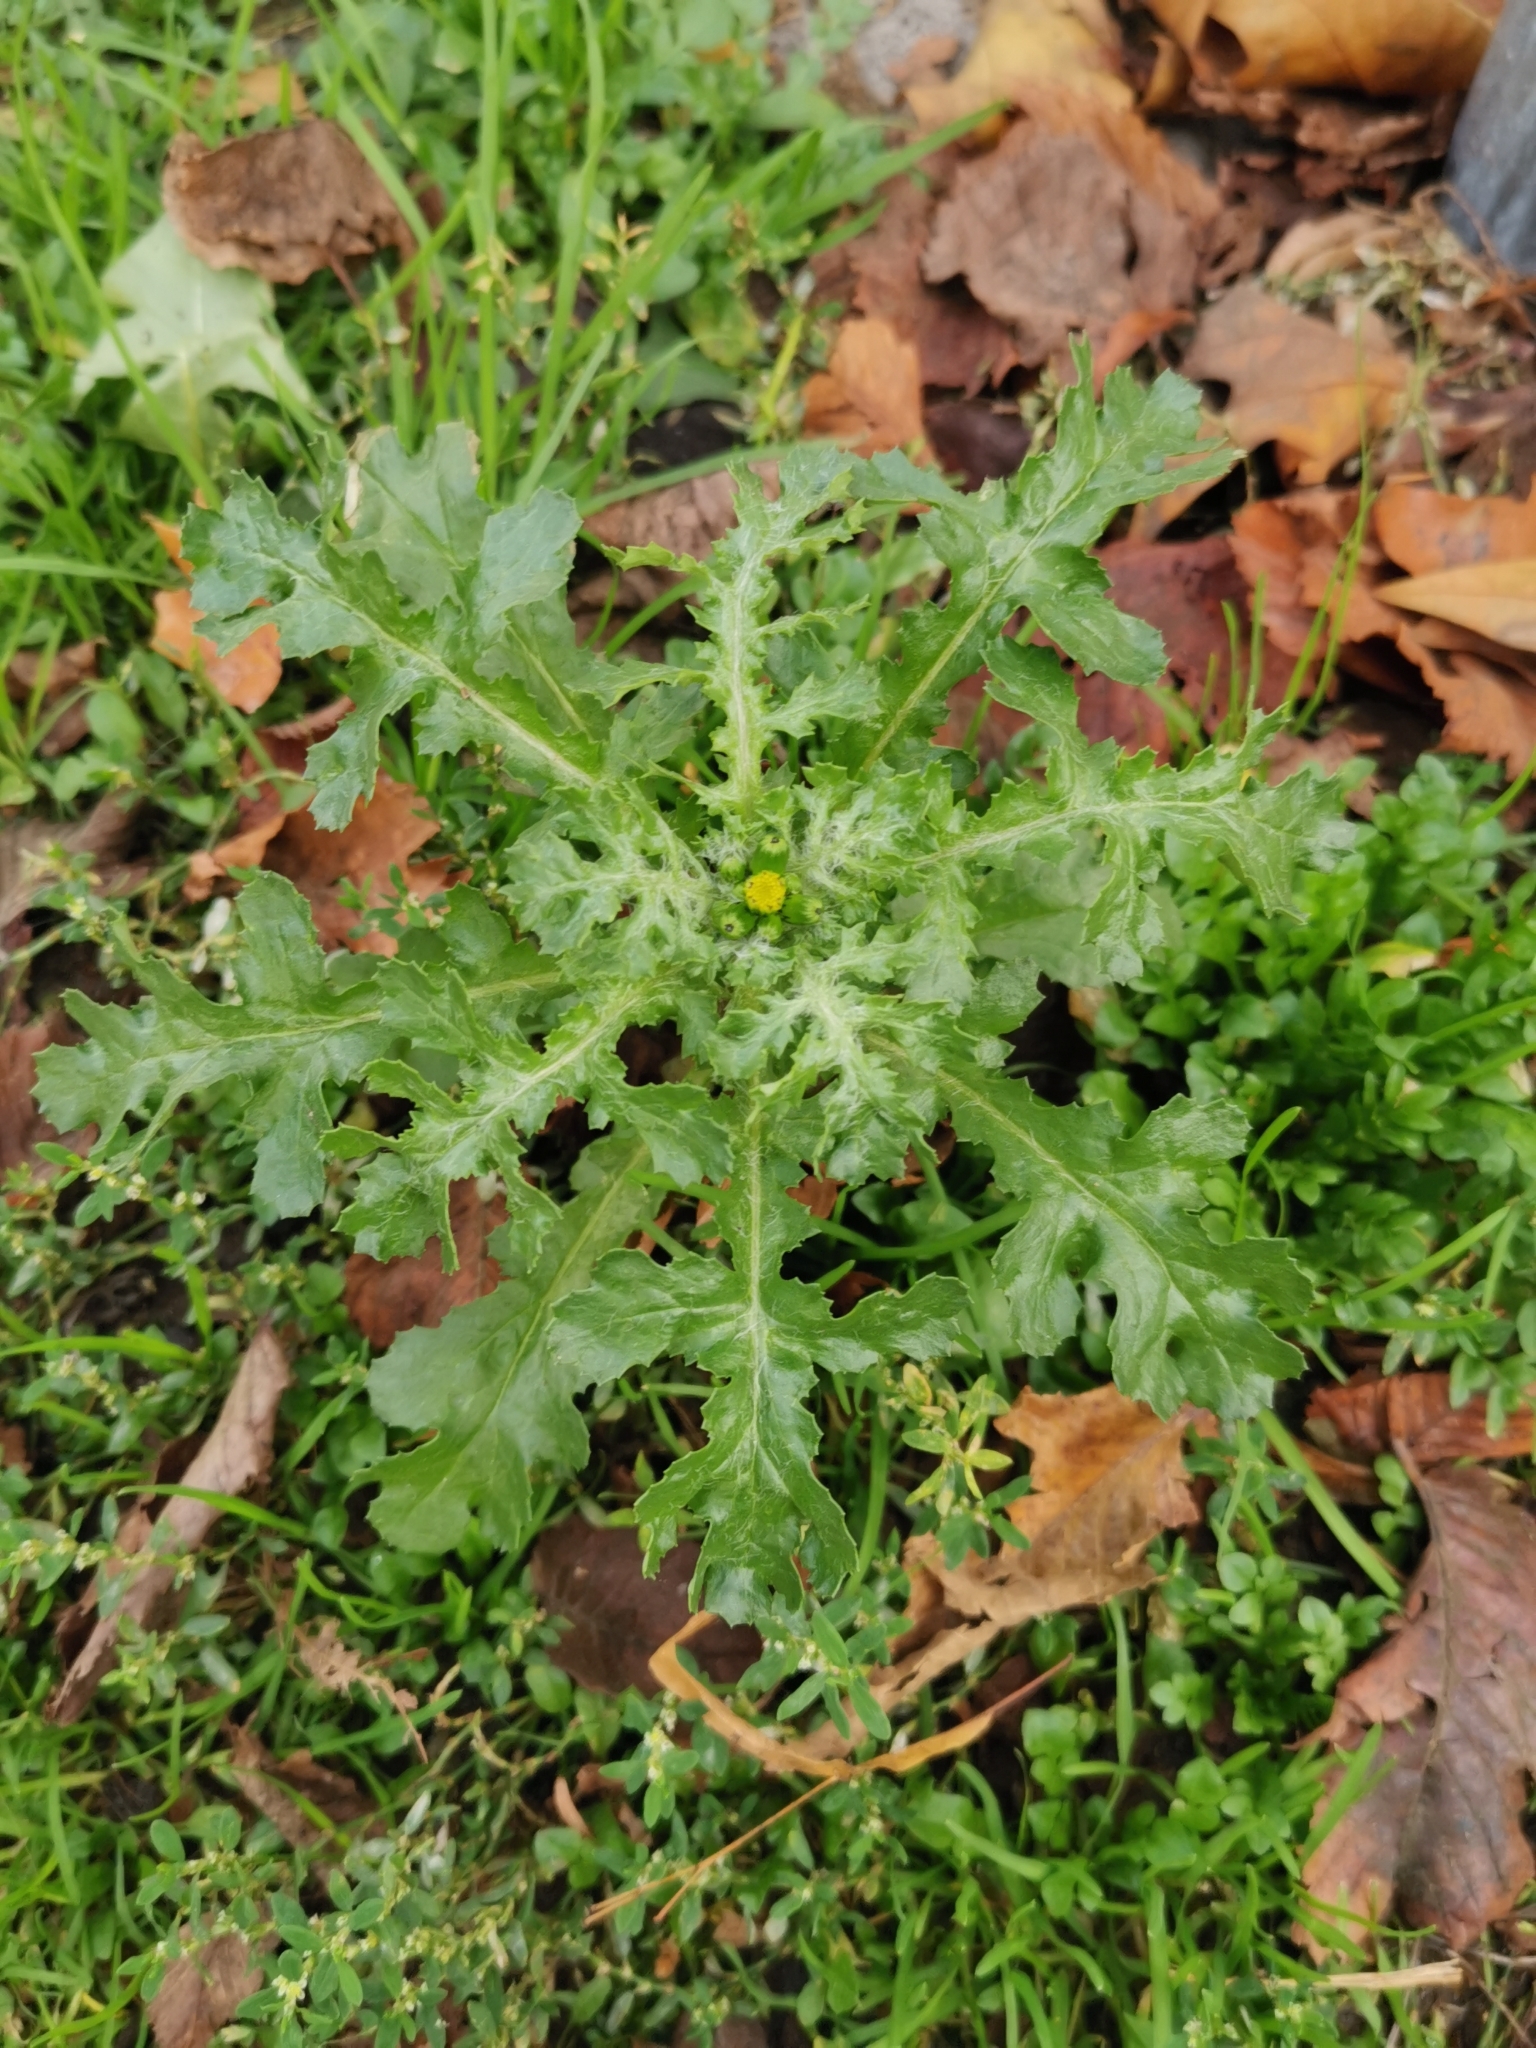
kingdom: Plantae
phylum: Tracheophyta
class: Magnoliopsida
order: Asterales
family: Asteraceae
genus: Senecio
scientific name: Senecio vulgaris
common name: Old-man-in-the-spring
